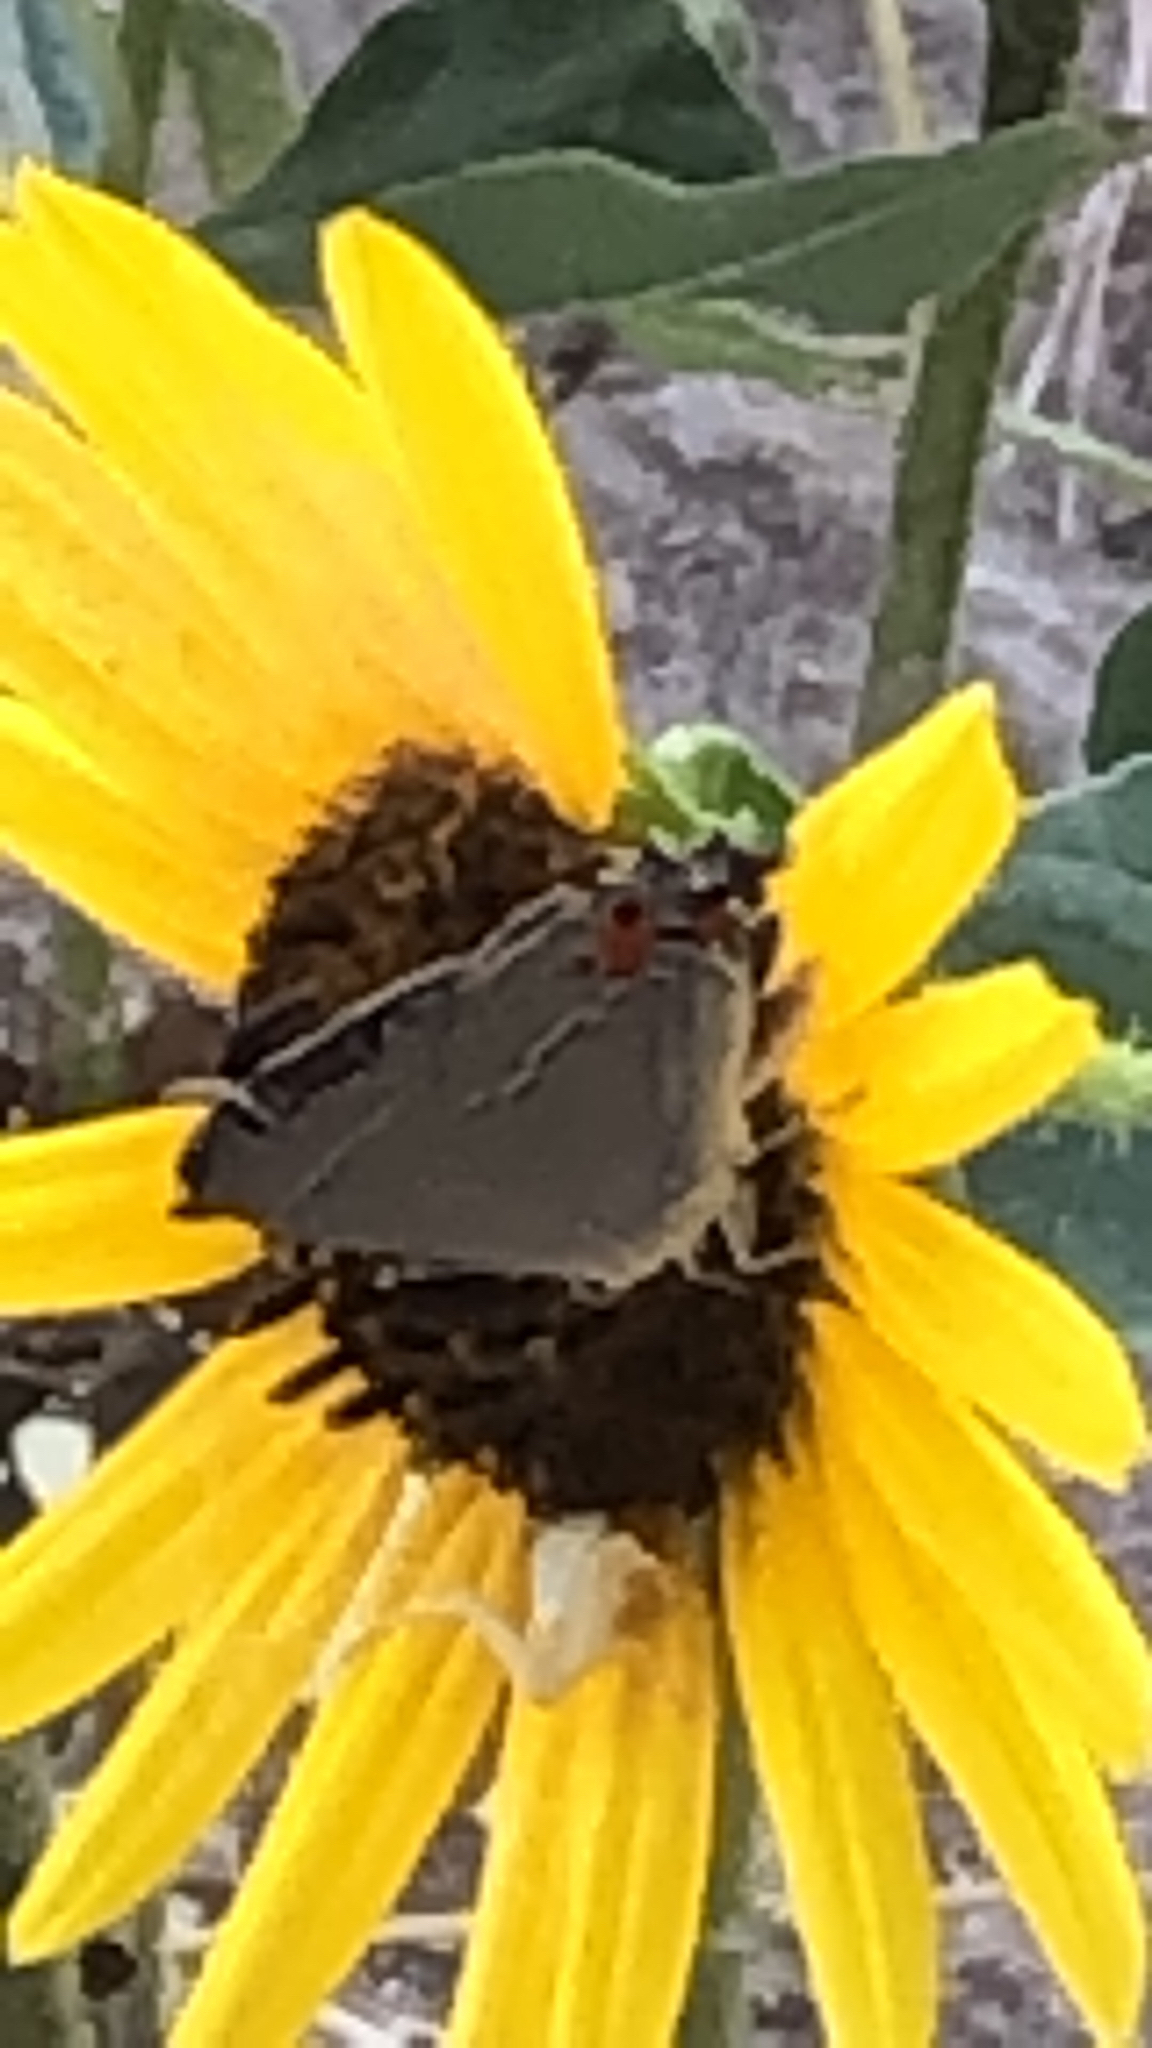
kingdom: Animalia
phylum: Arthropoda
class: Insecta
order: Lepidoptera
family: Lycaenidae
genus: Strymon
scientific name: Strymon melinus
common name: Gray hairstreak
